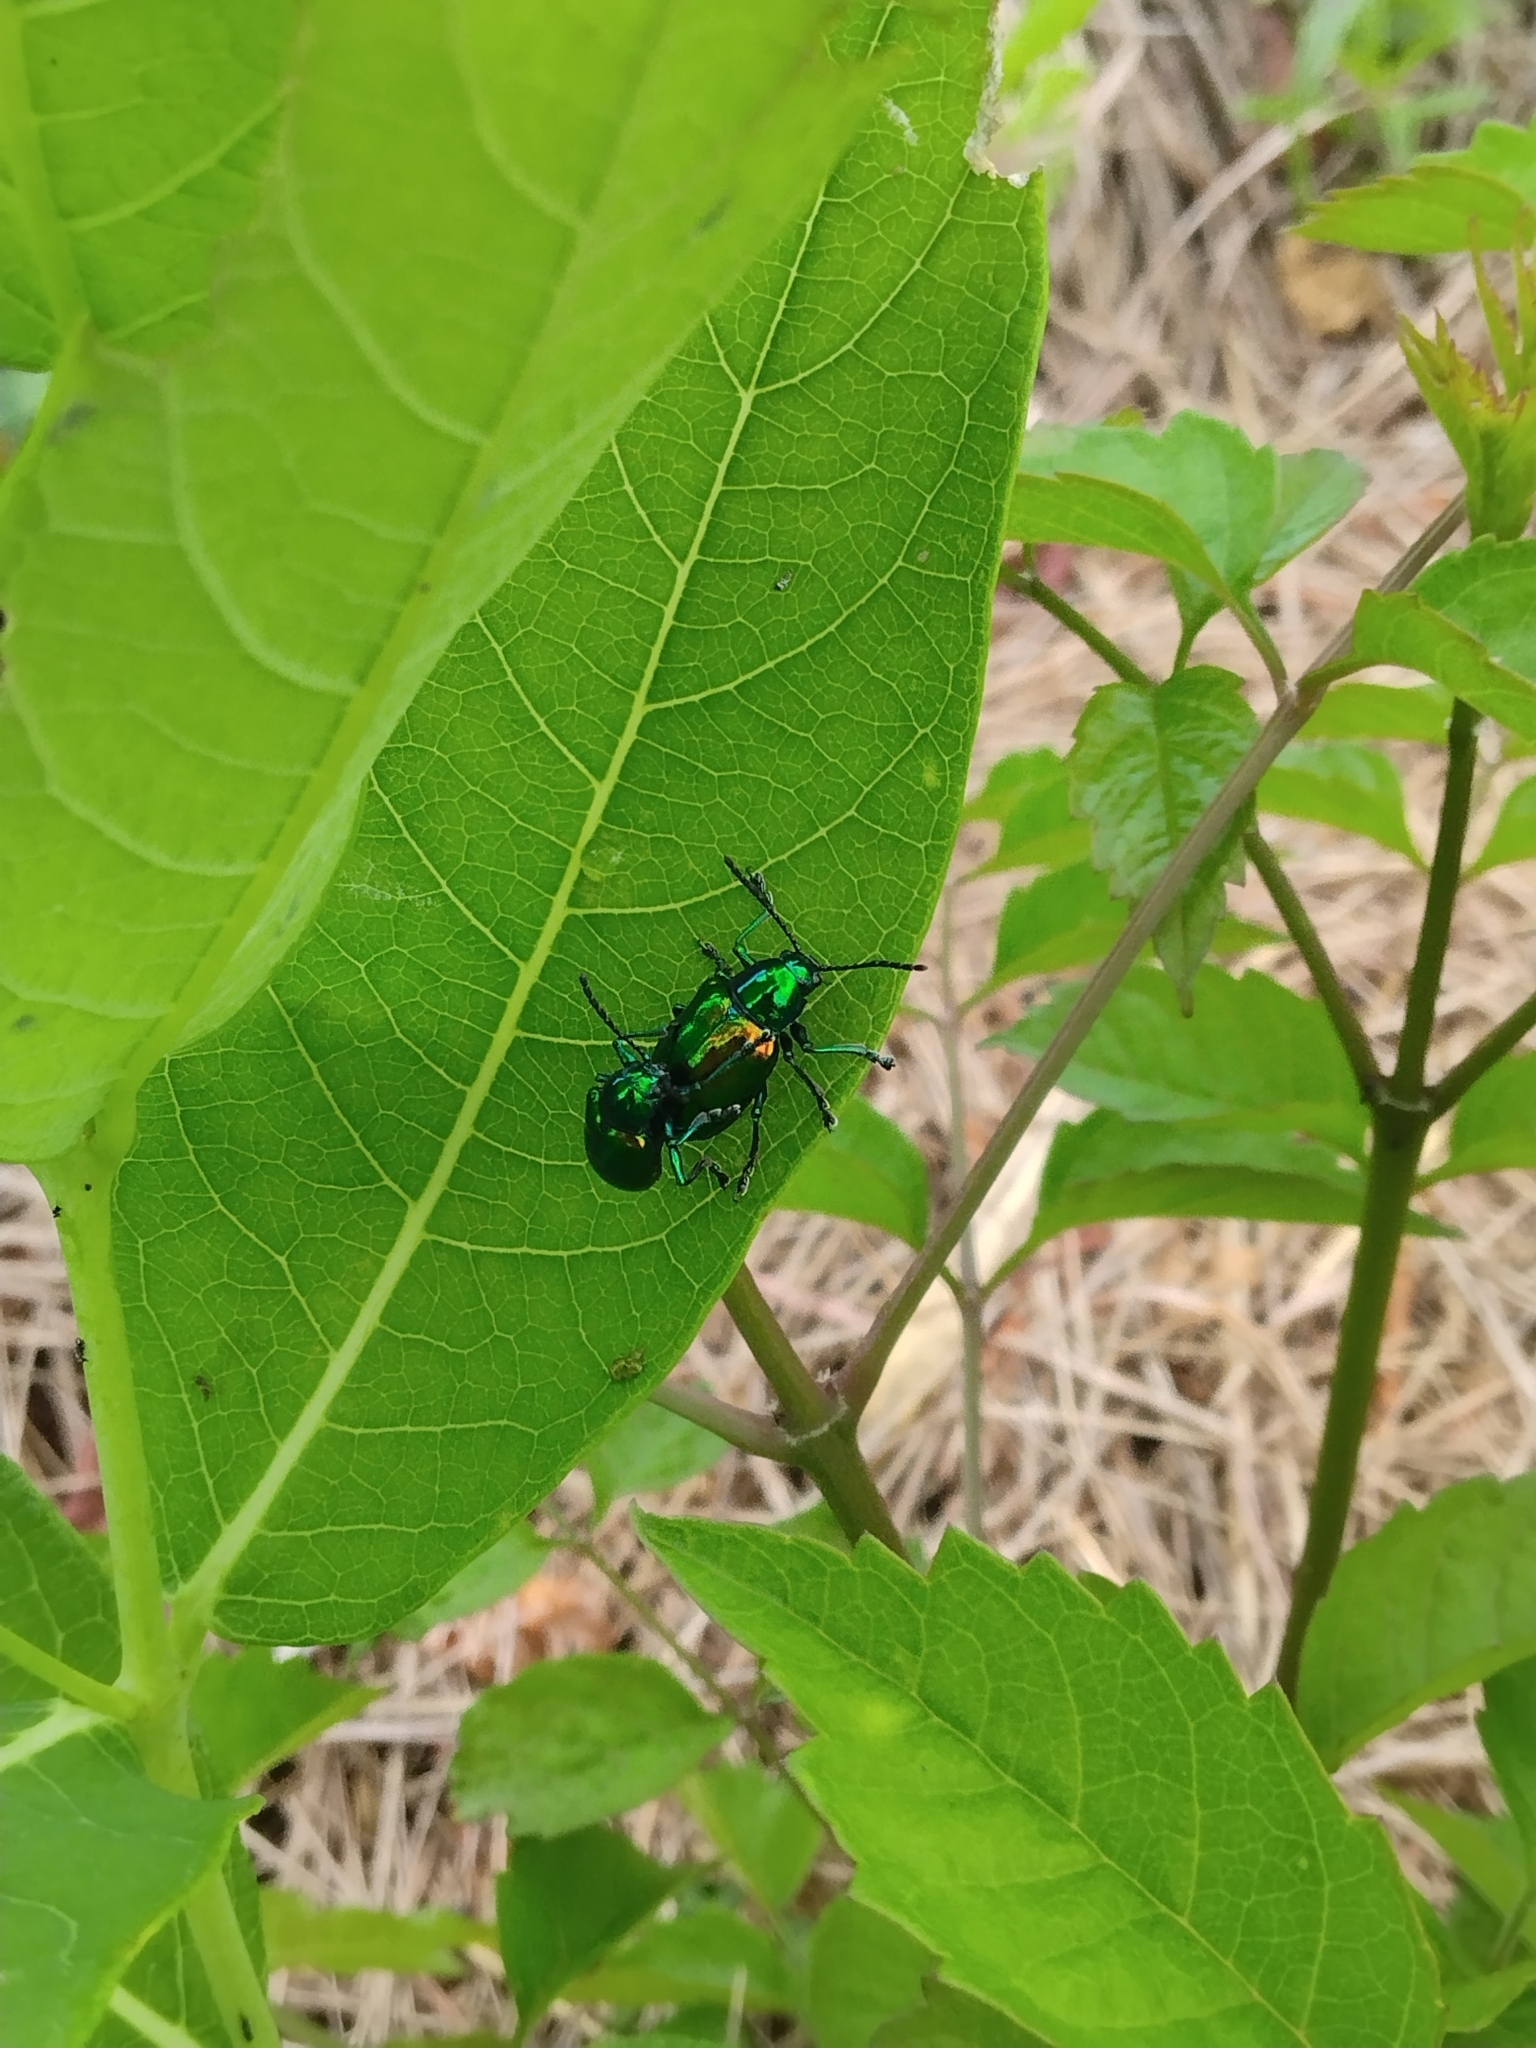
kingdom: Animalia
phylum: Arthropoda
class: Insecta
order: Coleoptera
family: Chrysomelidae
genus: Chrysochus
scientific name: Chrysochus auratus
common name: Dogbane leaf beetle
